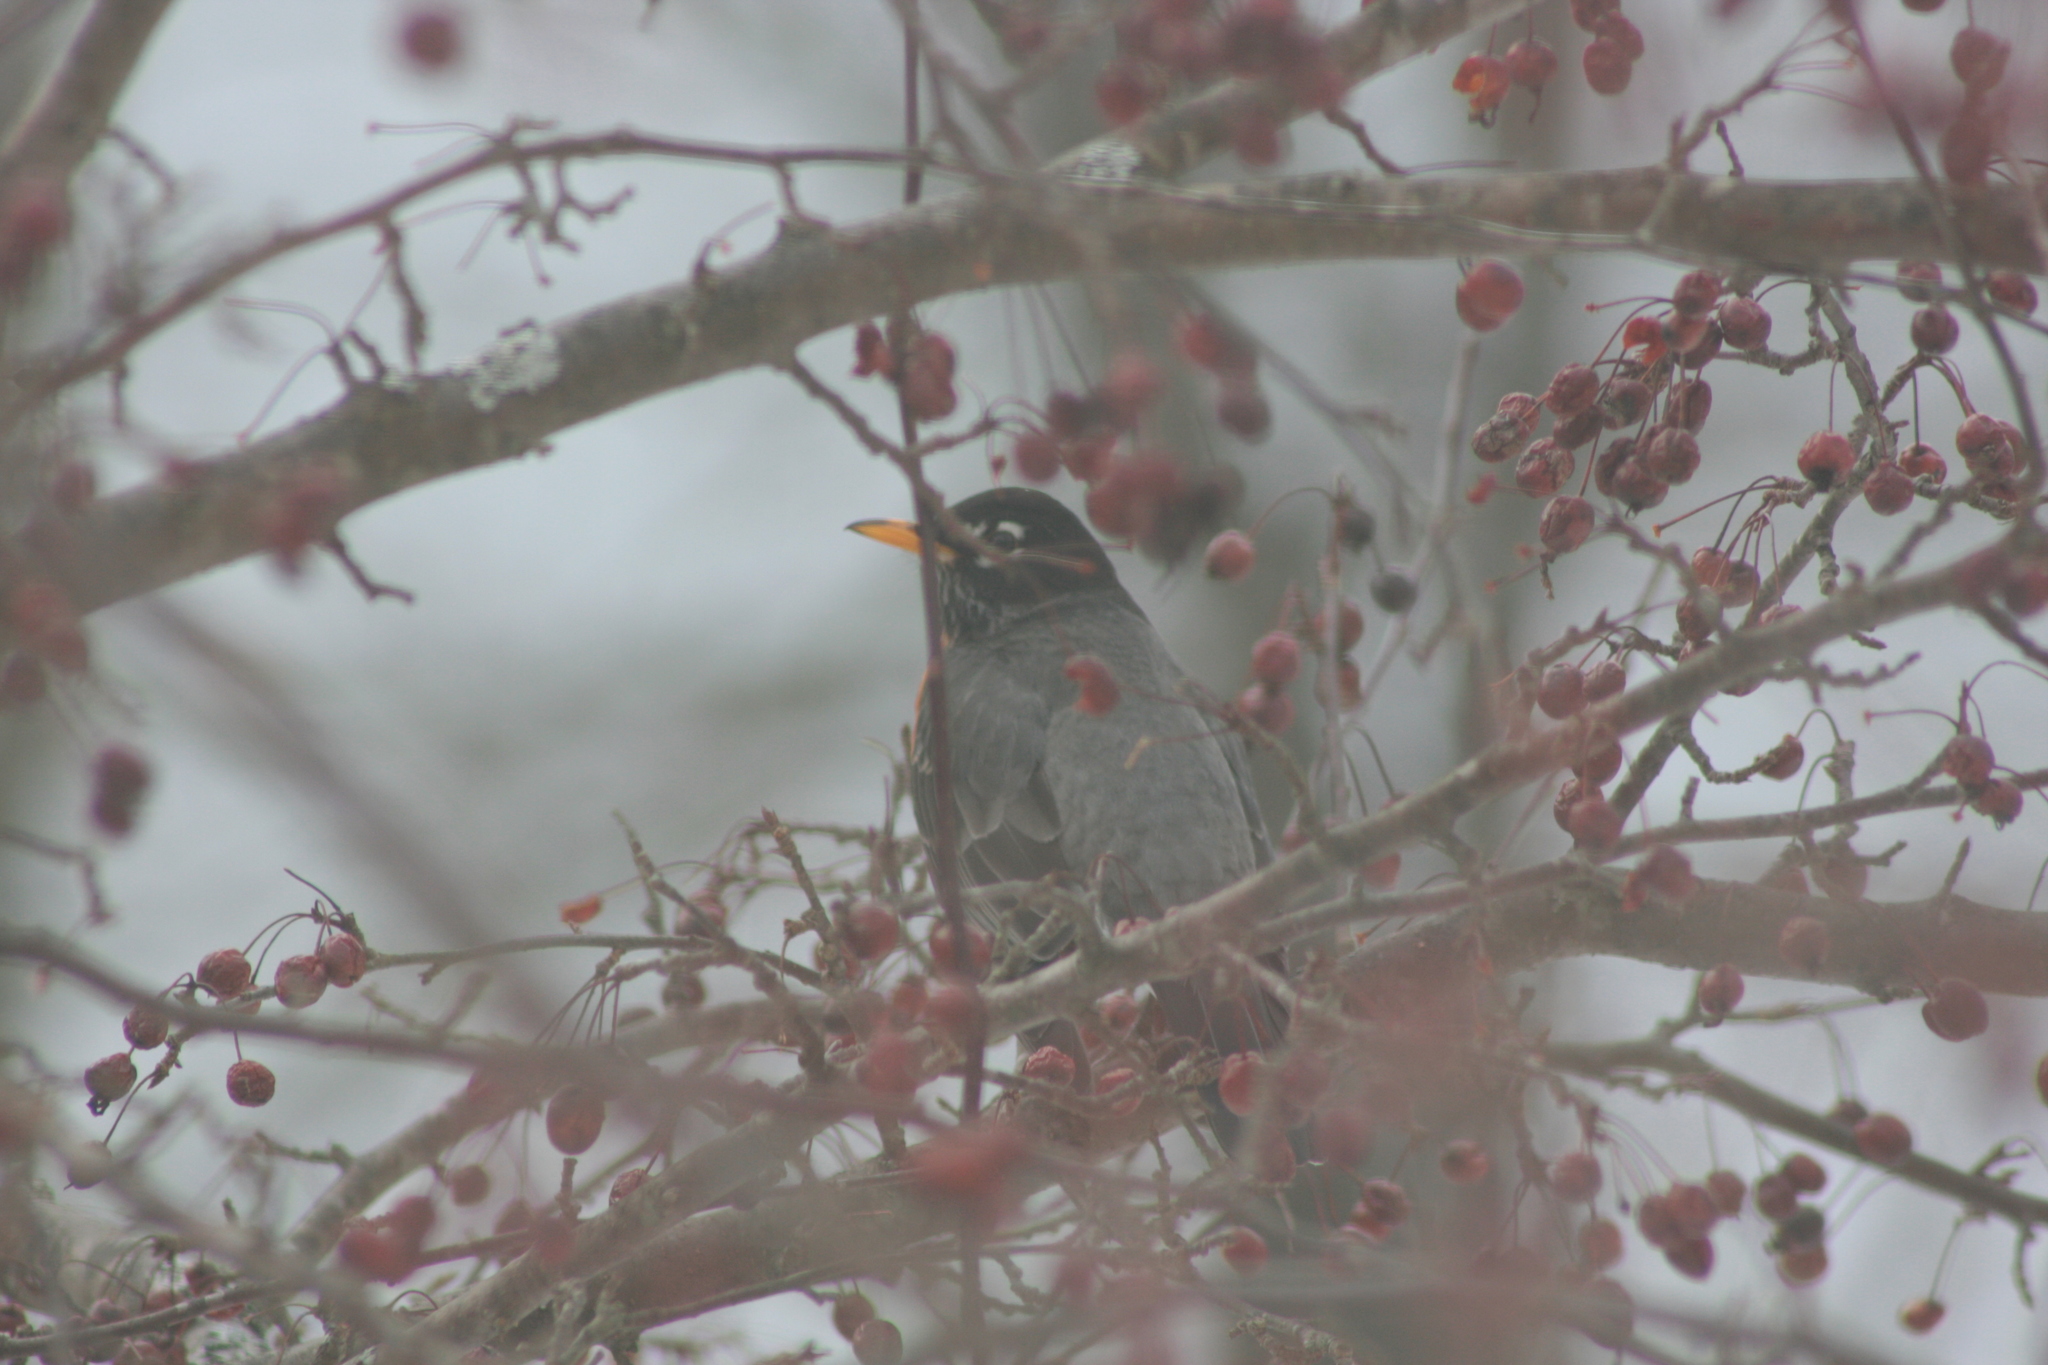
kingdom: Animalia
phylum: Chordata
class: Aves
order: Passeriformes
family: Turdidae
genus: Turdus
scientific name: Turdus migratorius
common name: American robin
